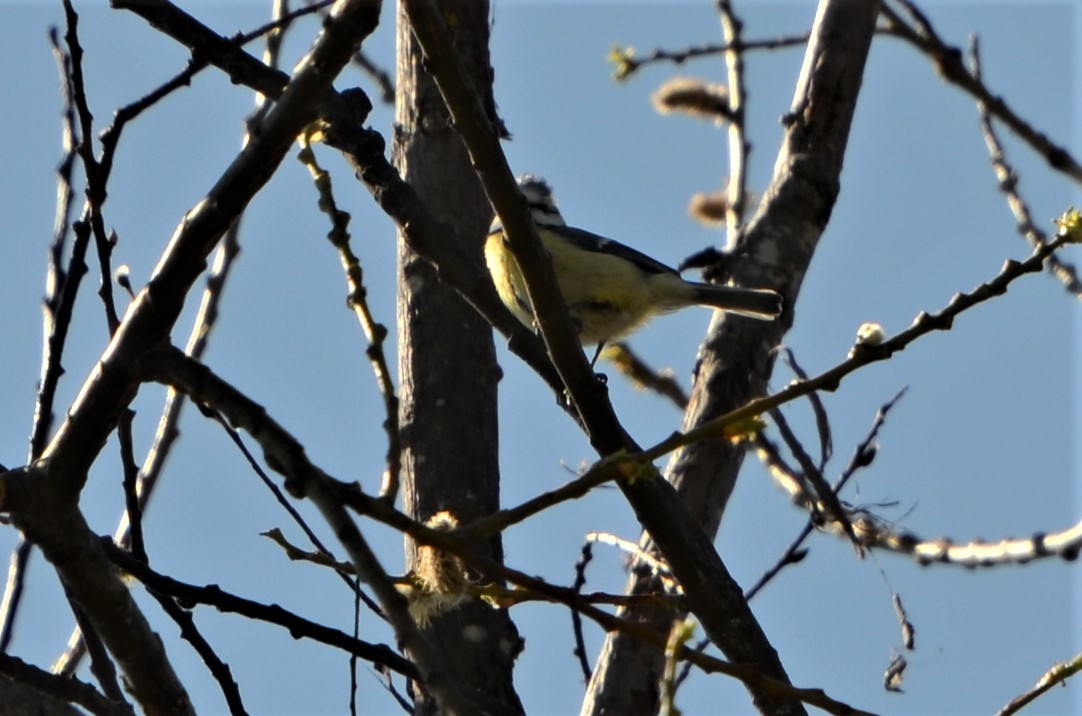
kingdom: Animalia
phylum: Chordata
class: Aves
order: Passeriformes
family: Paridae
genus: Cyanistes
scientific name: Cyanistes caeruleus
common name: Eurasian blue tit
